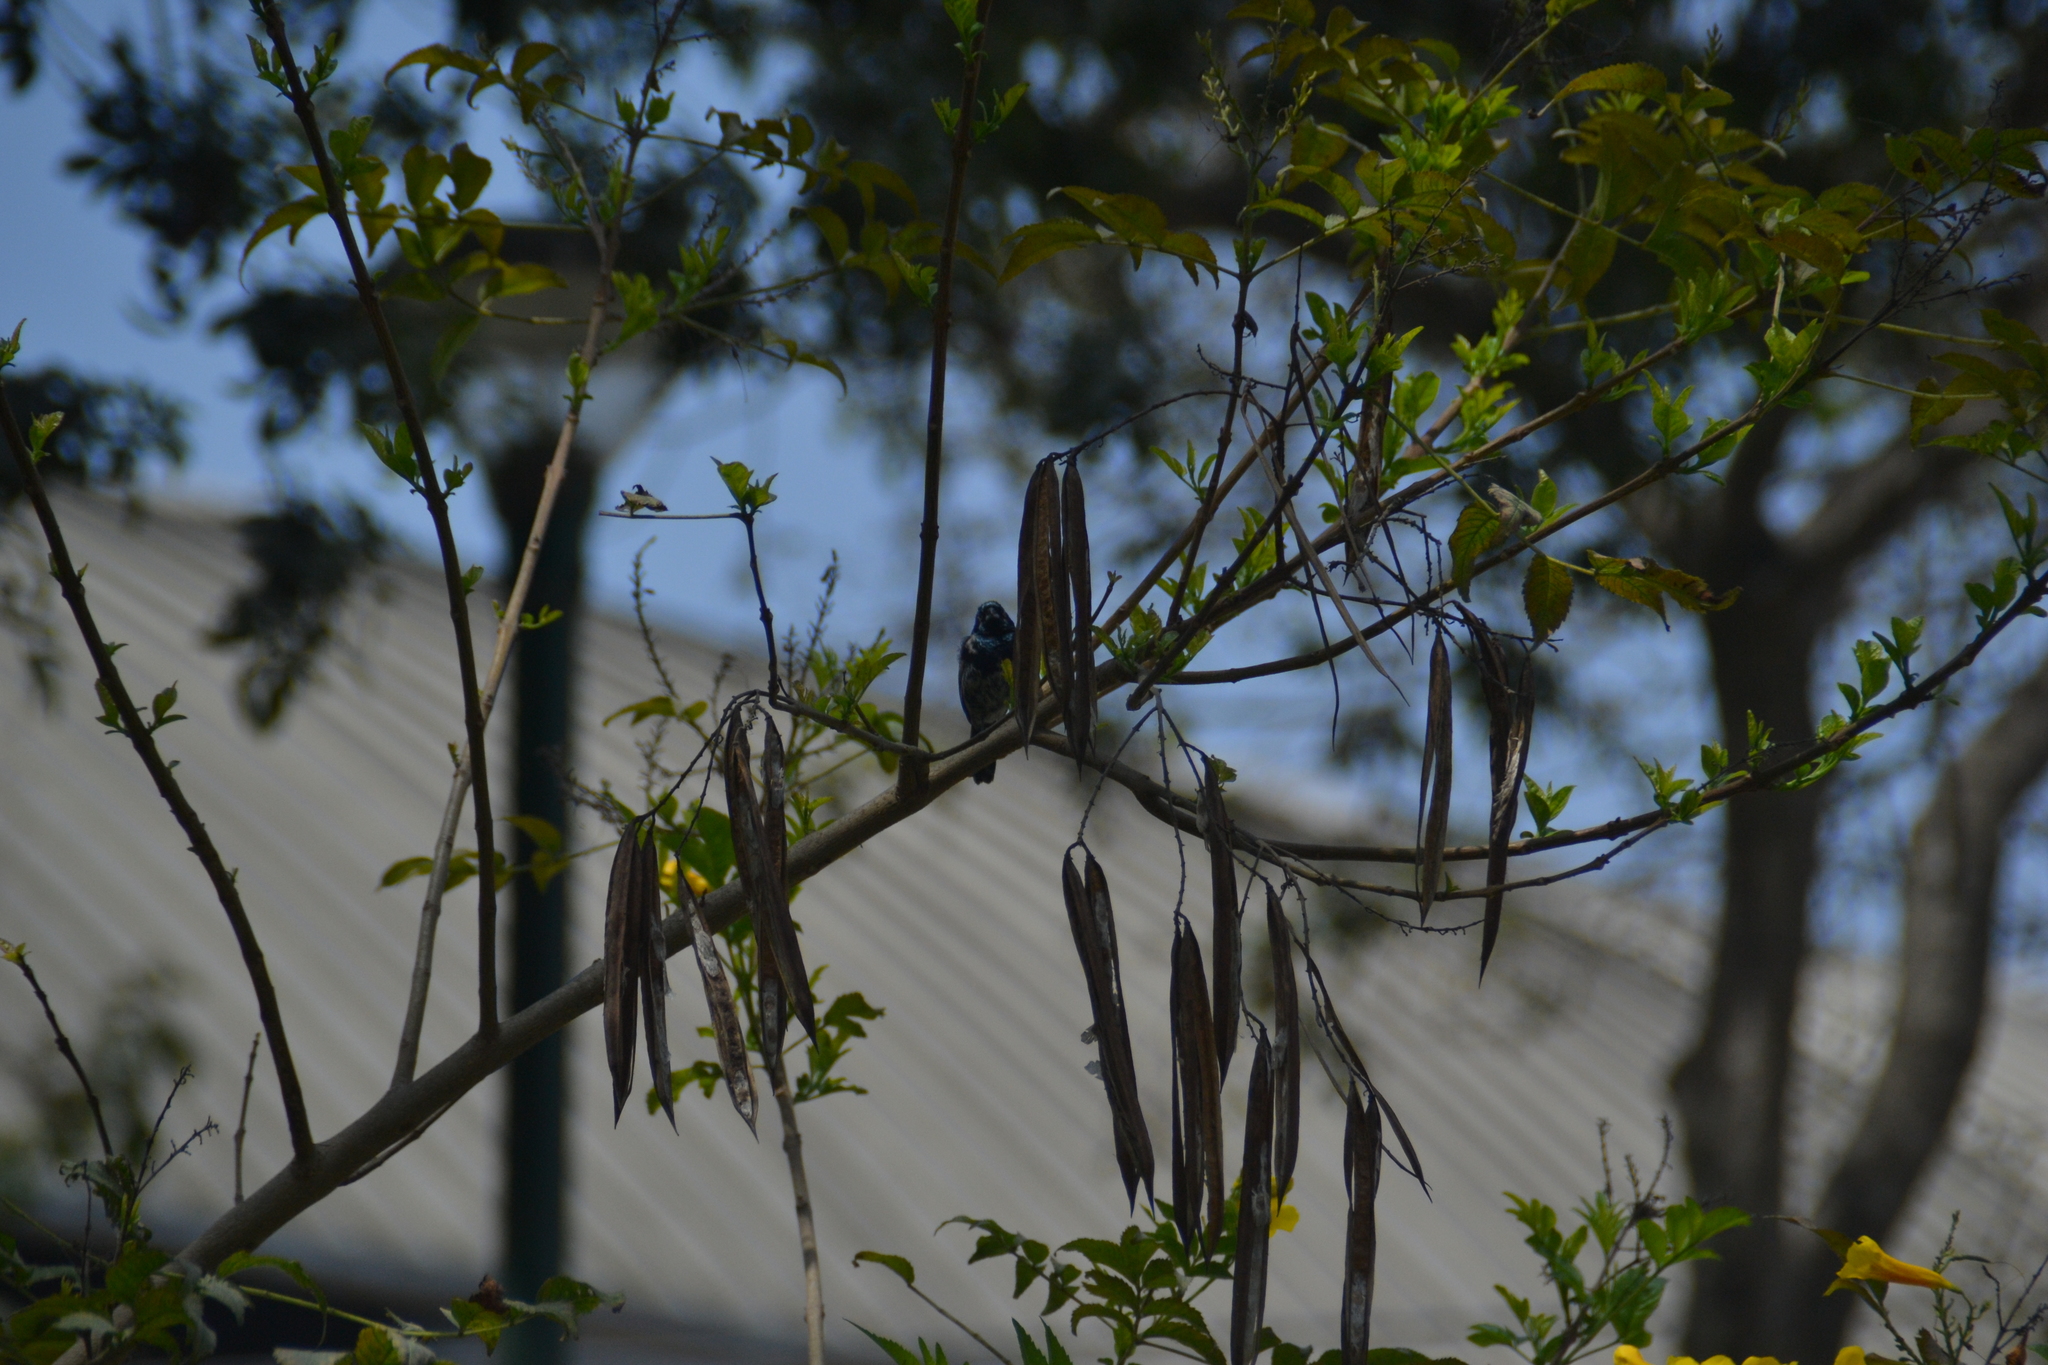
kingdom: Animalia
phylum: Chordata
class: Aves
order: Passeriformes
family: Thraupidae
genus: Volatinia
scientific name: Volatinia jacarina
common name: Blue-black grassquit
